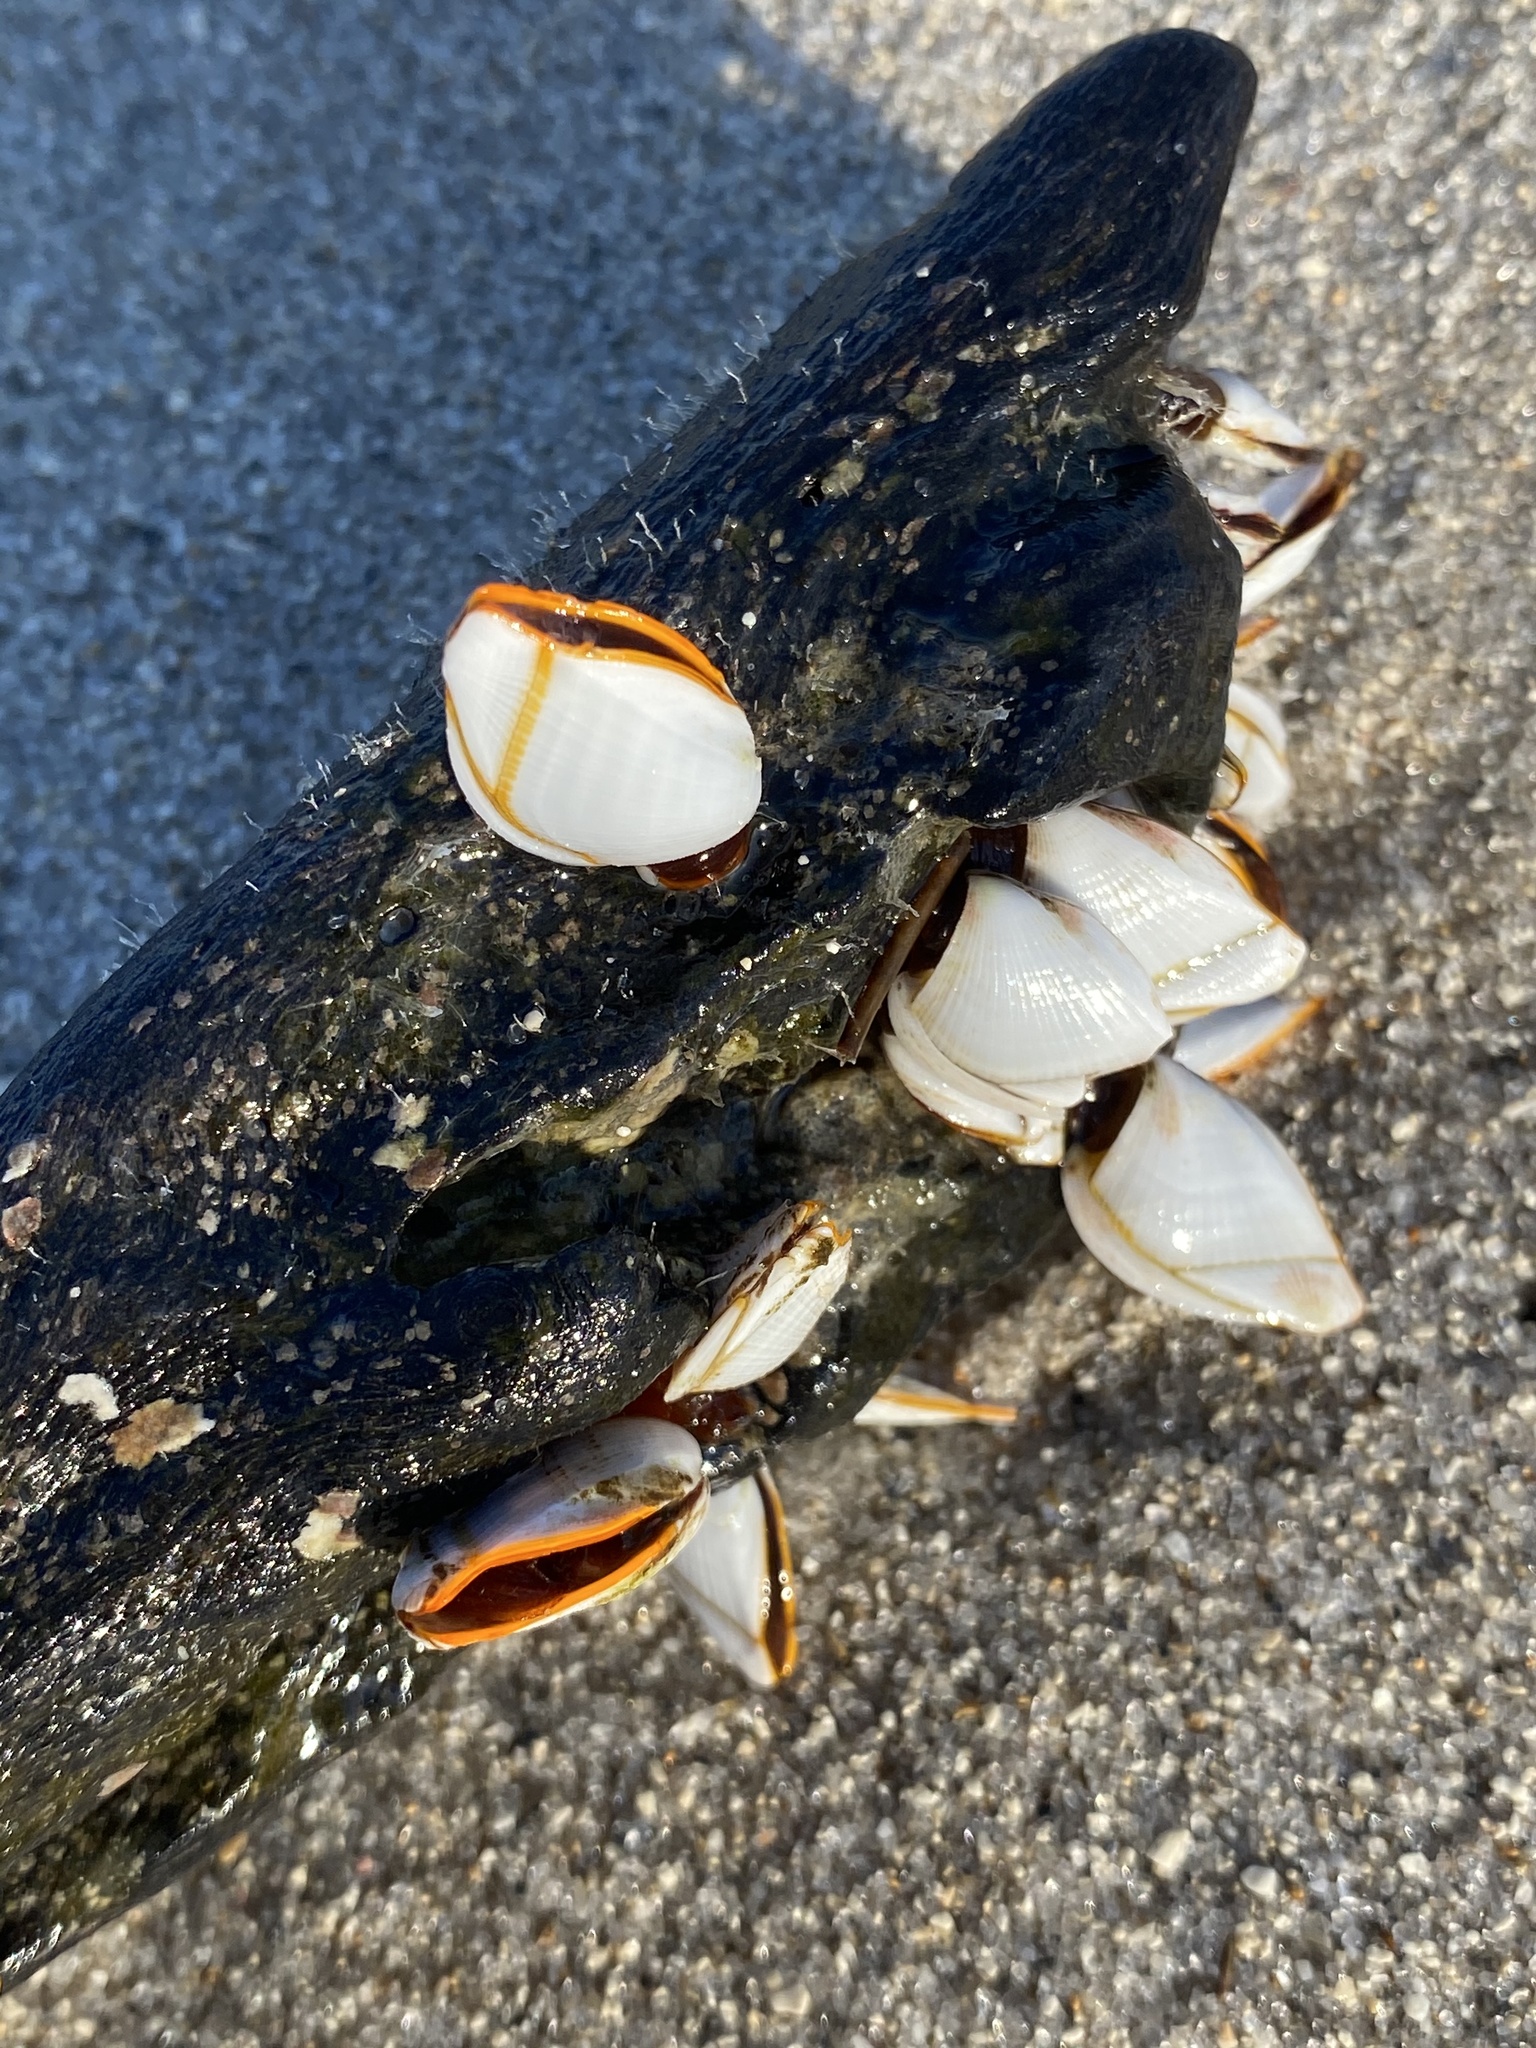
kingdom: Animalia
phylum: Arthropoda
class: Maxillopoda
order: Pedunculata
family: Lepadidae
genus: Lepas
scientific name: Lepas anserifera
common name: Goose barnacle
